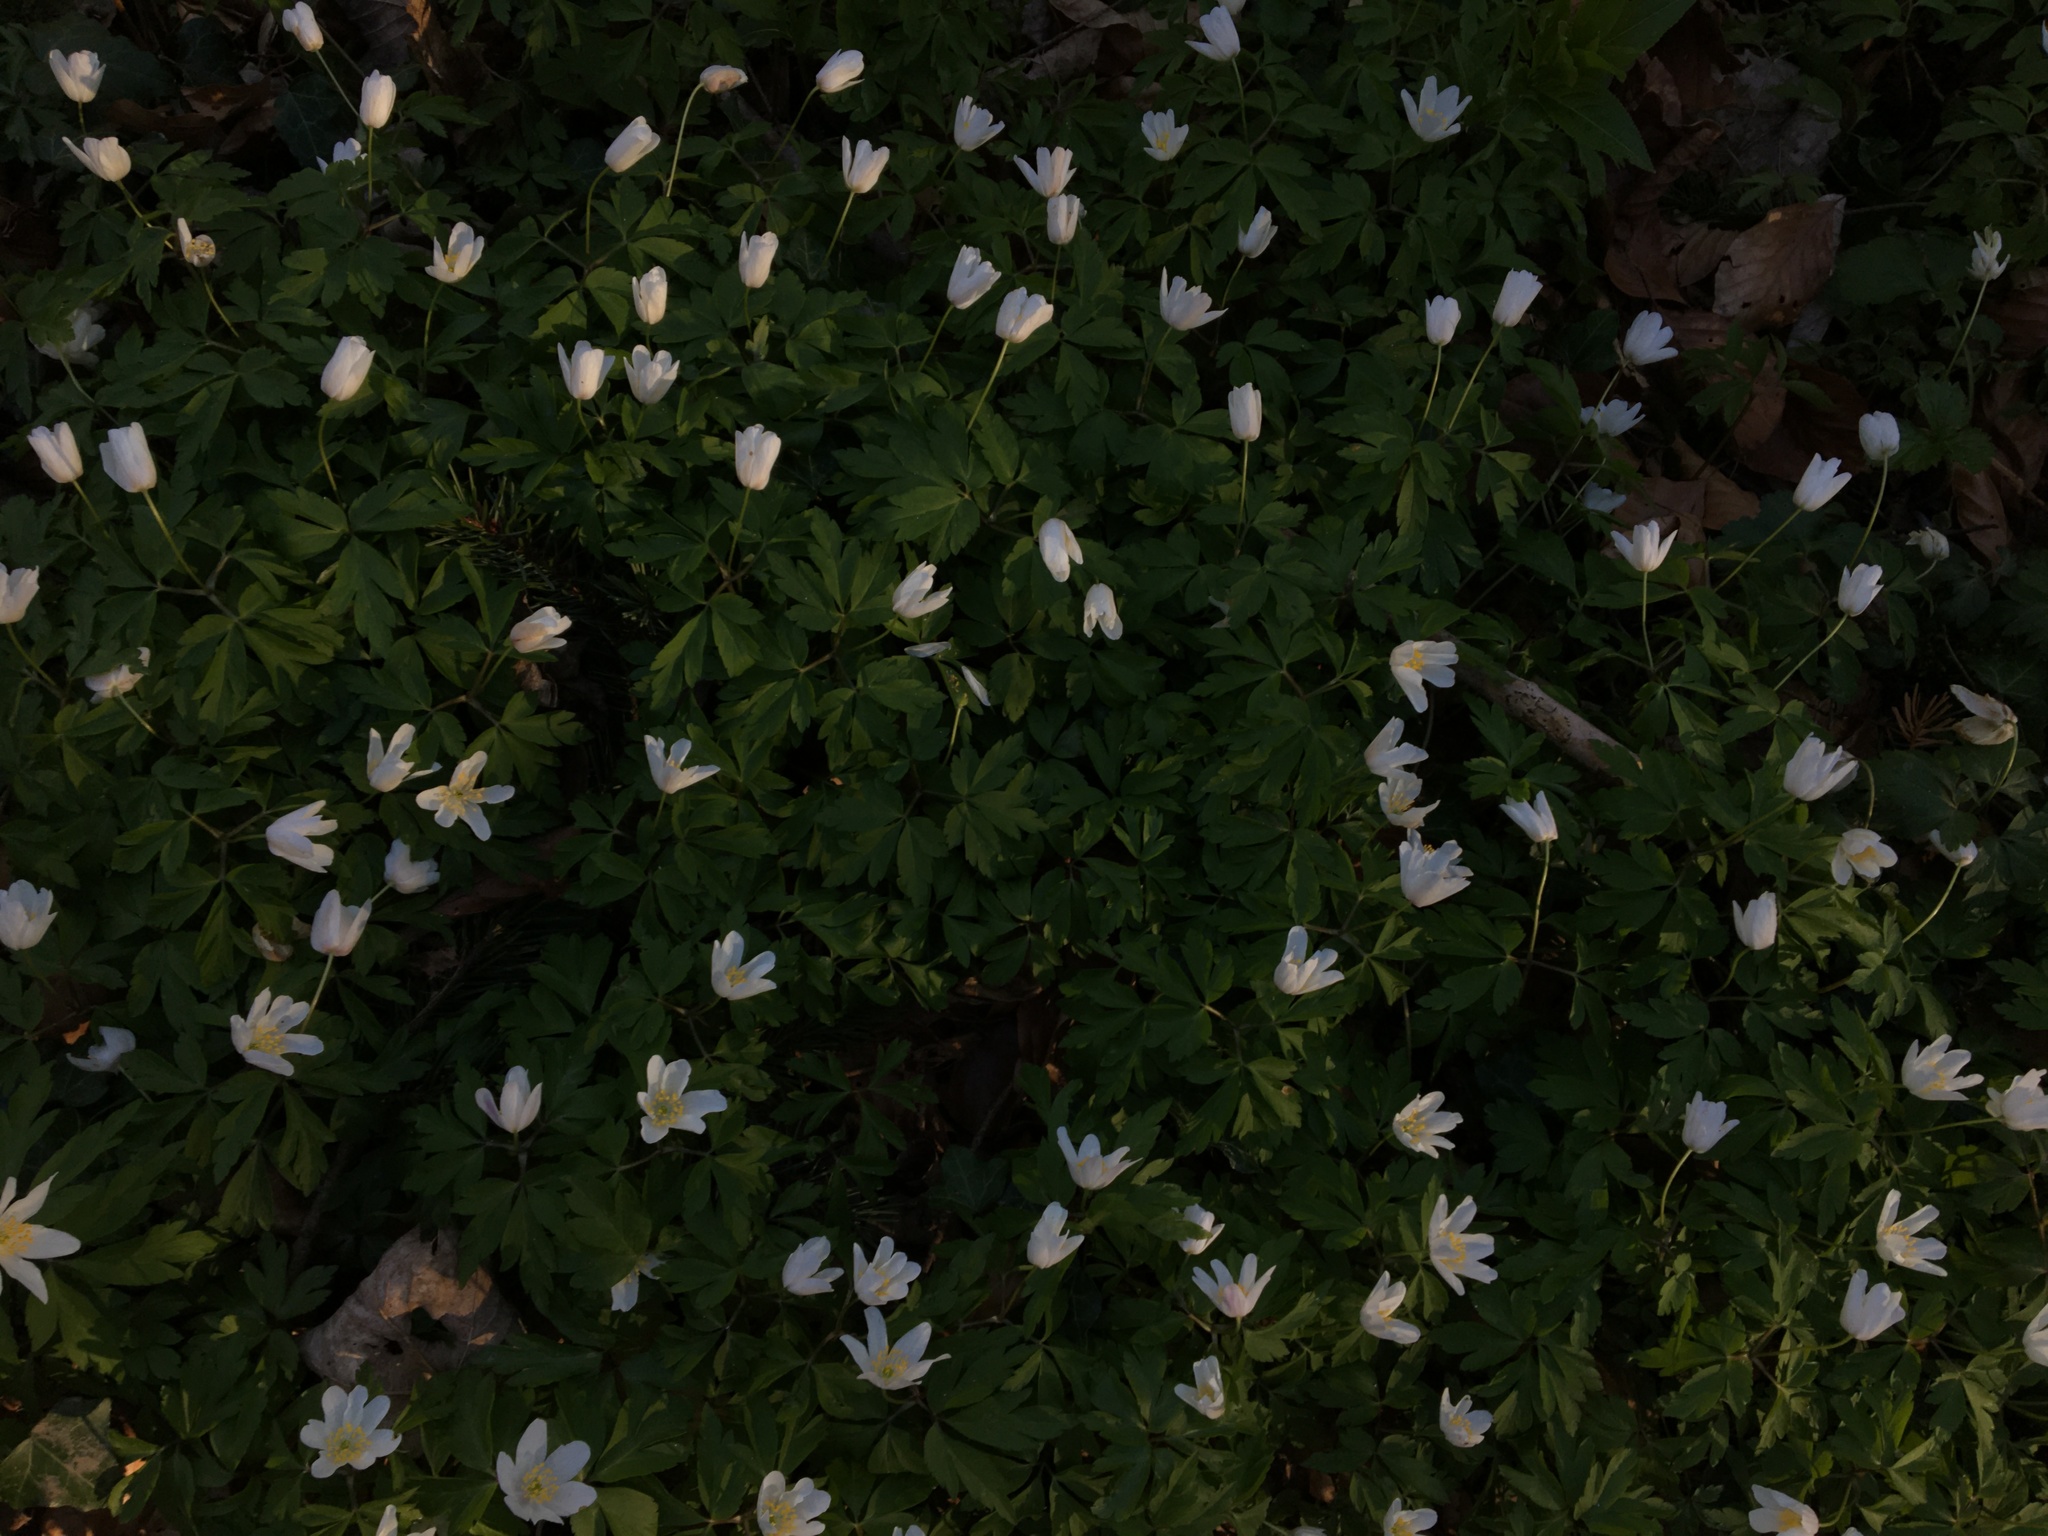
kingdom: Plantae
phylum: Tracheophyta
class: Magnoliopsida
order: Ranunculales
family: Ranunculaceae
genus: Anemone
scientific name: Anemone nemorosa
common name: Wood anemone
